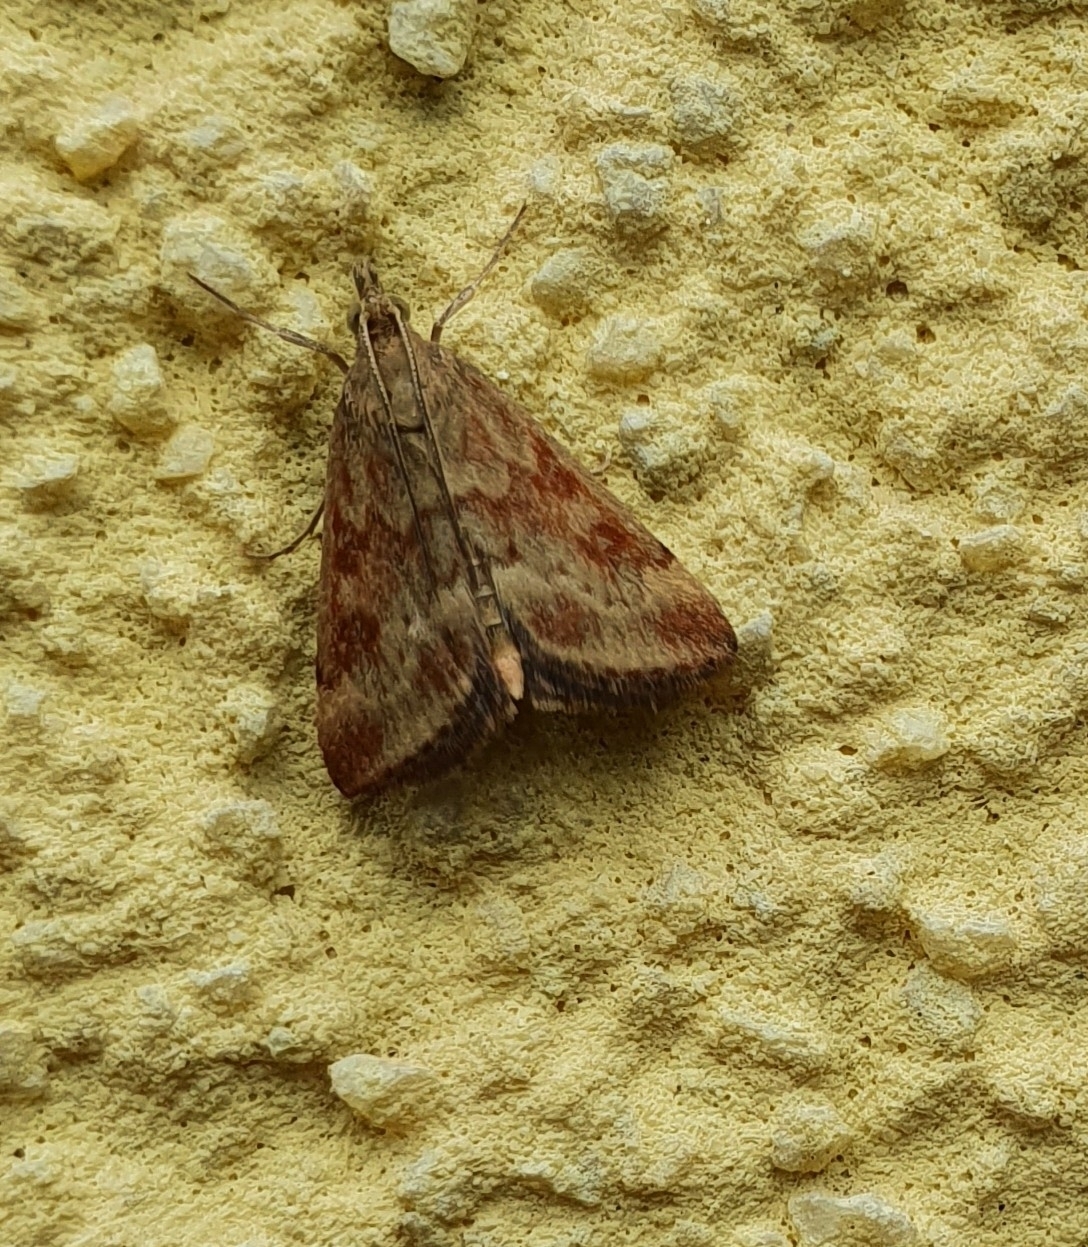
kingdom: Animalia
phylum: Arthropoda
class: Insecta
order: Lepidoptera
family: Crambidae
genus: Pyrausta
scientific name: Pyrausta despicata
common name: Straw-barred pearl
